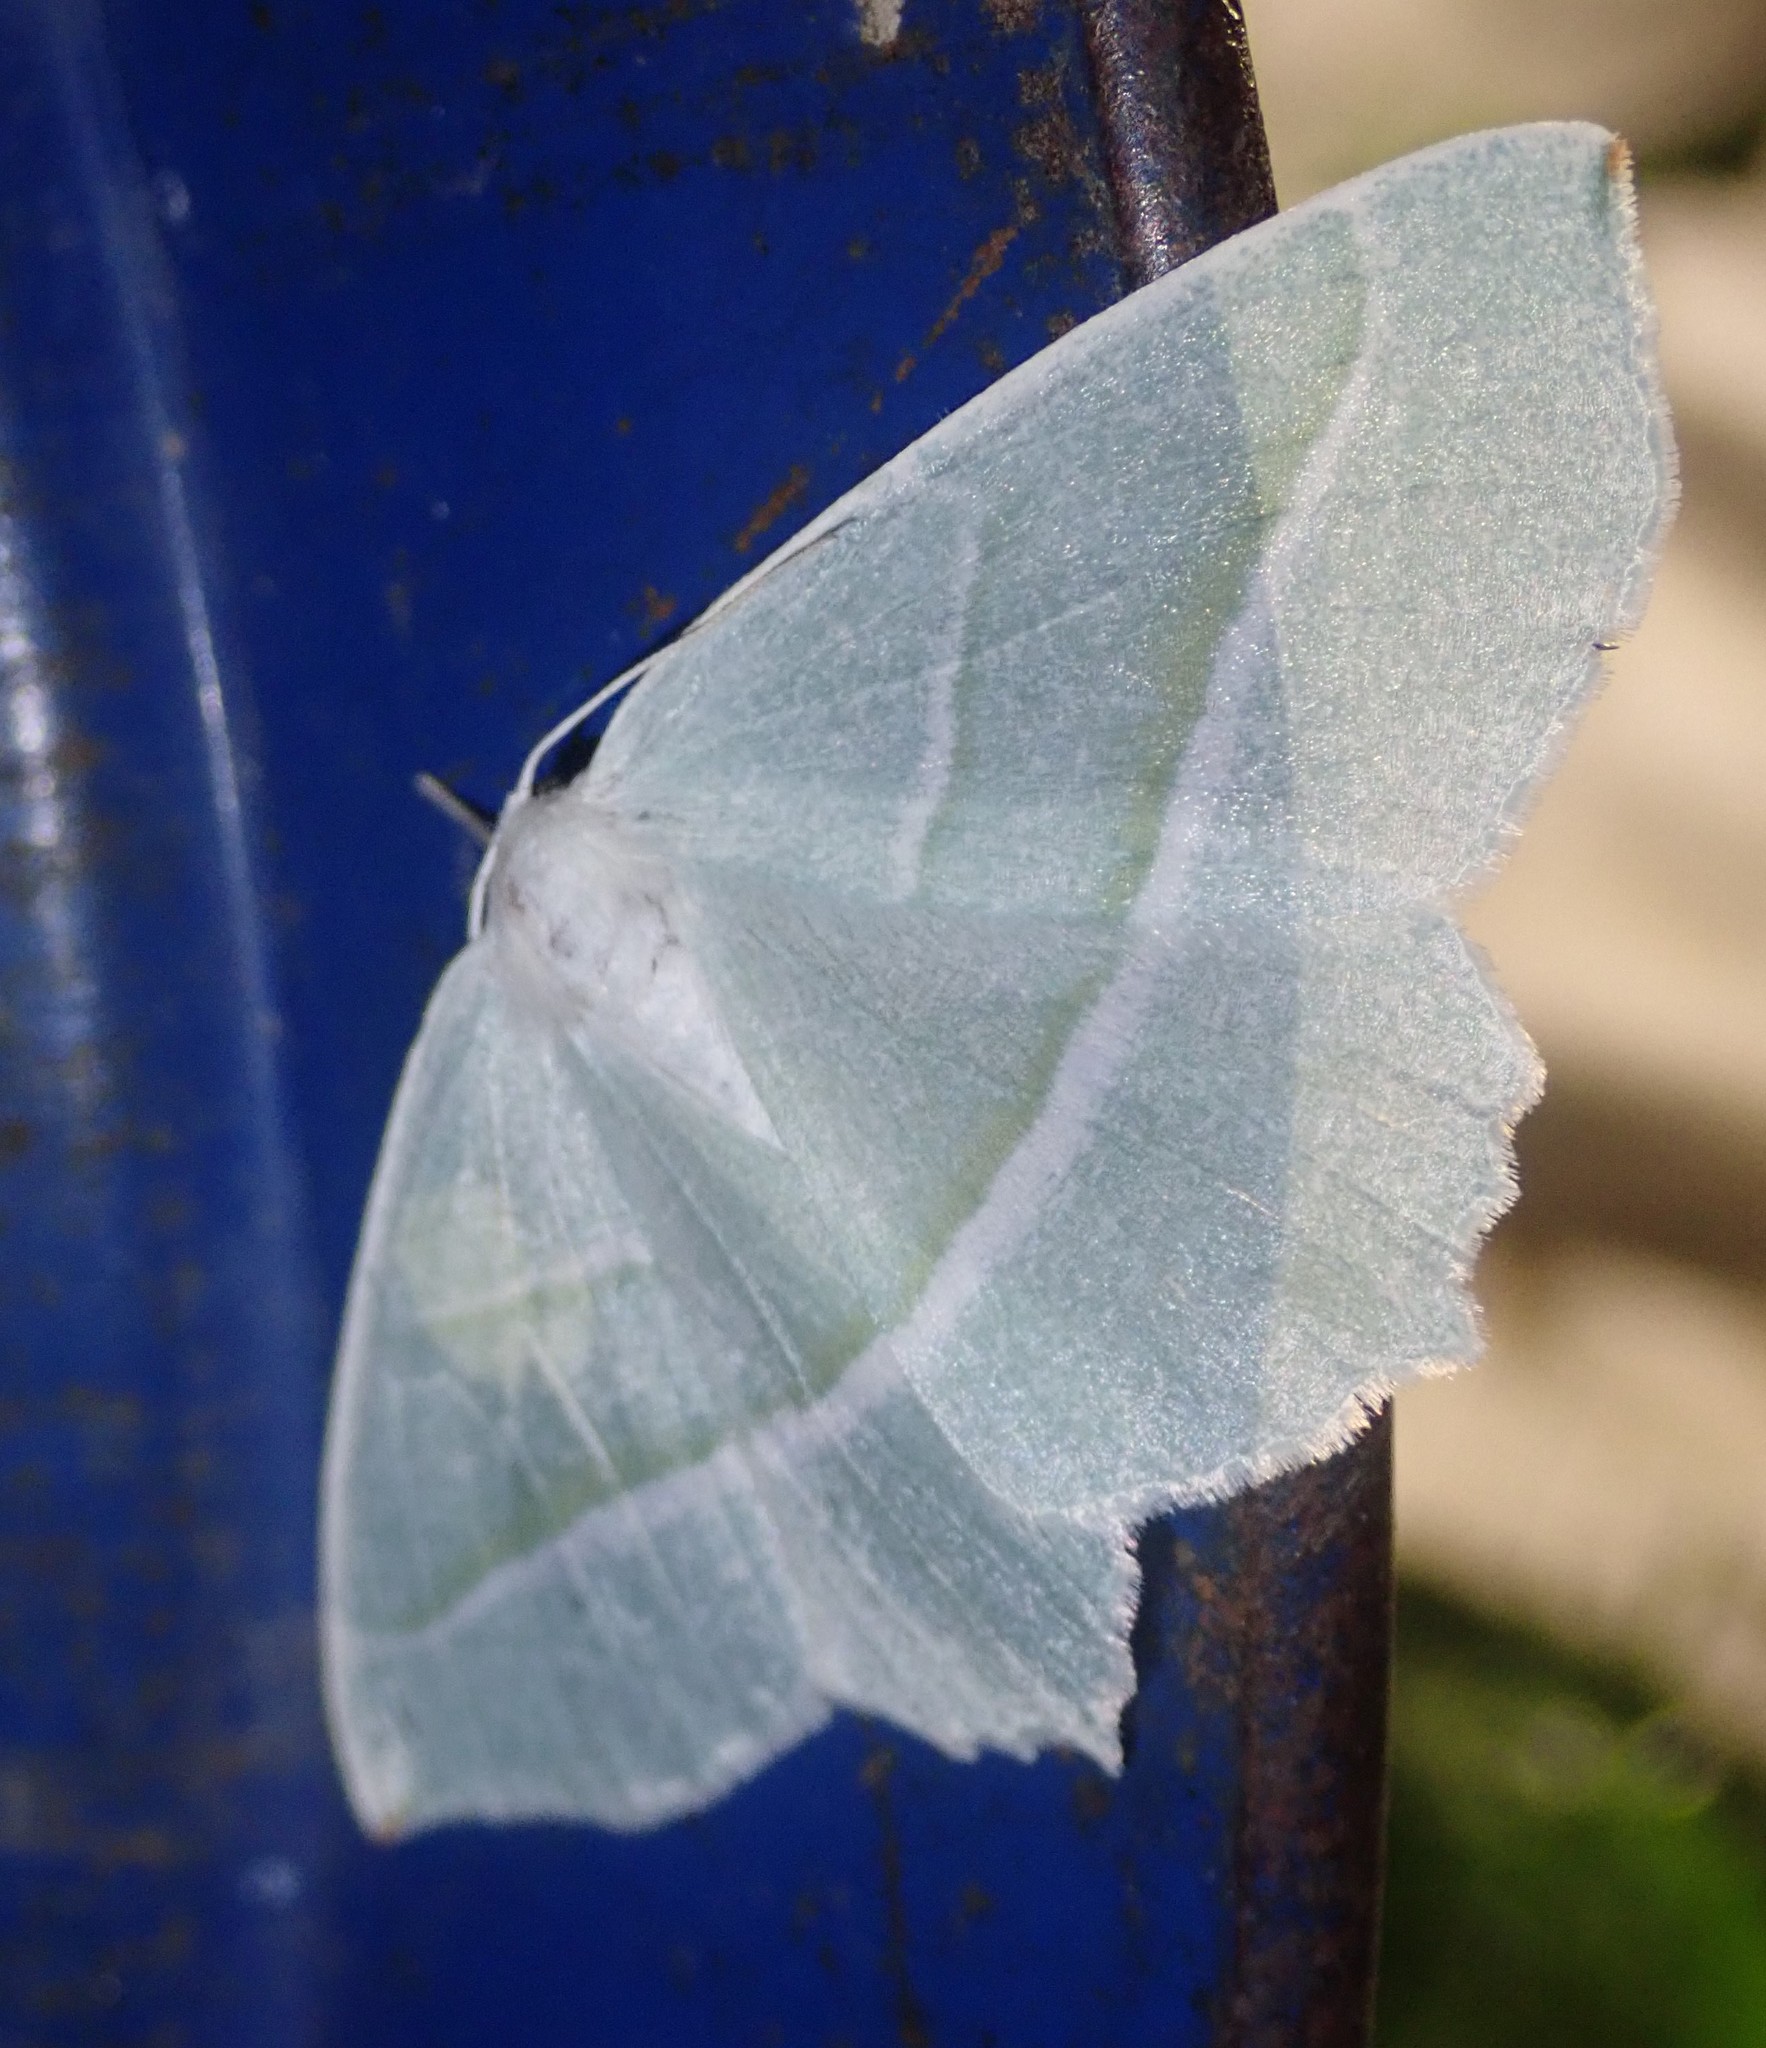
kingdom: Animalia
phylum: Arthropoda
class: Insecta
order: Lepidoptera
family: Geometridae
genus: Campaea
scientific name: Campaea margaritaria
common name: Light emerald
